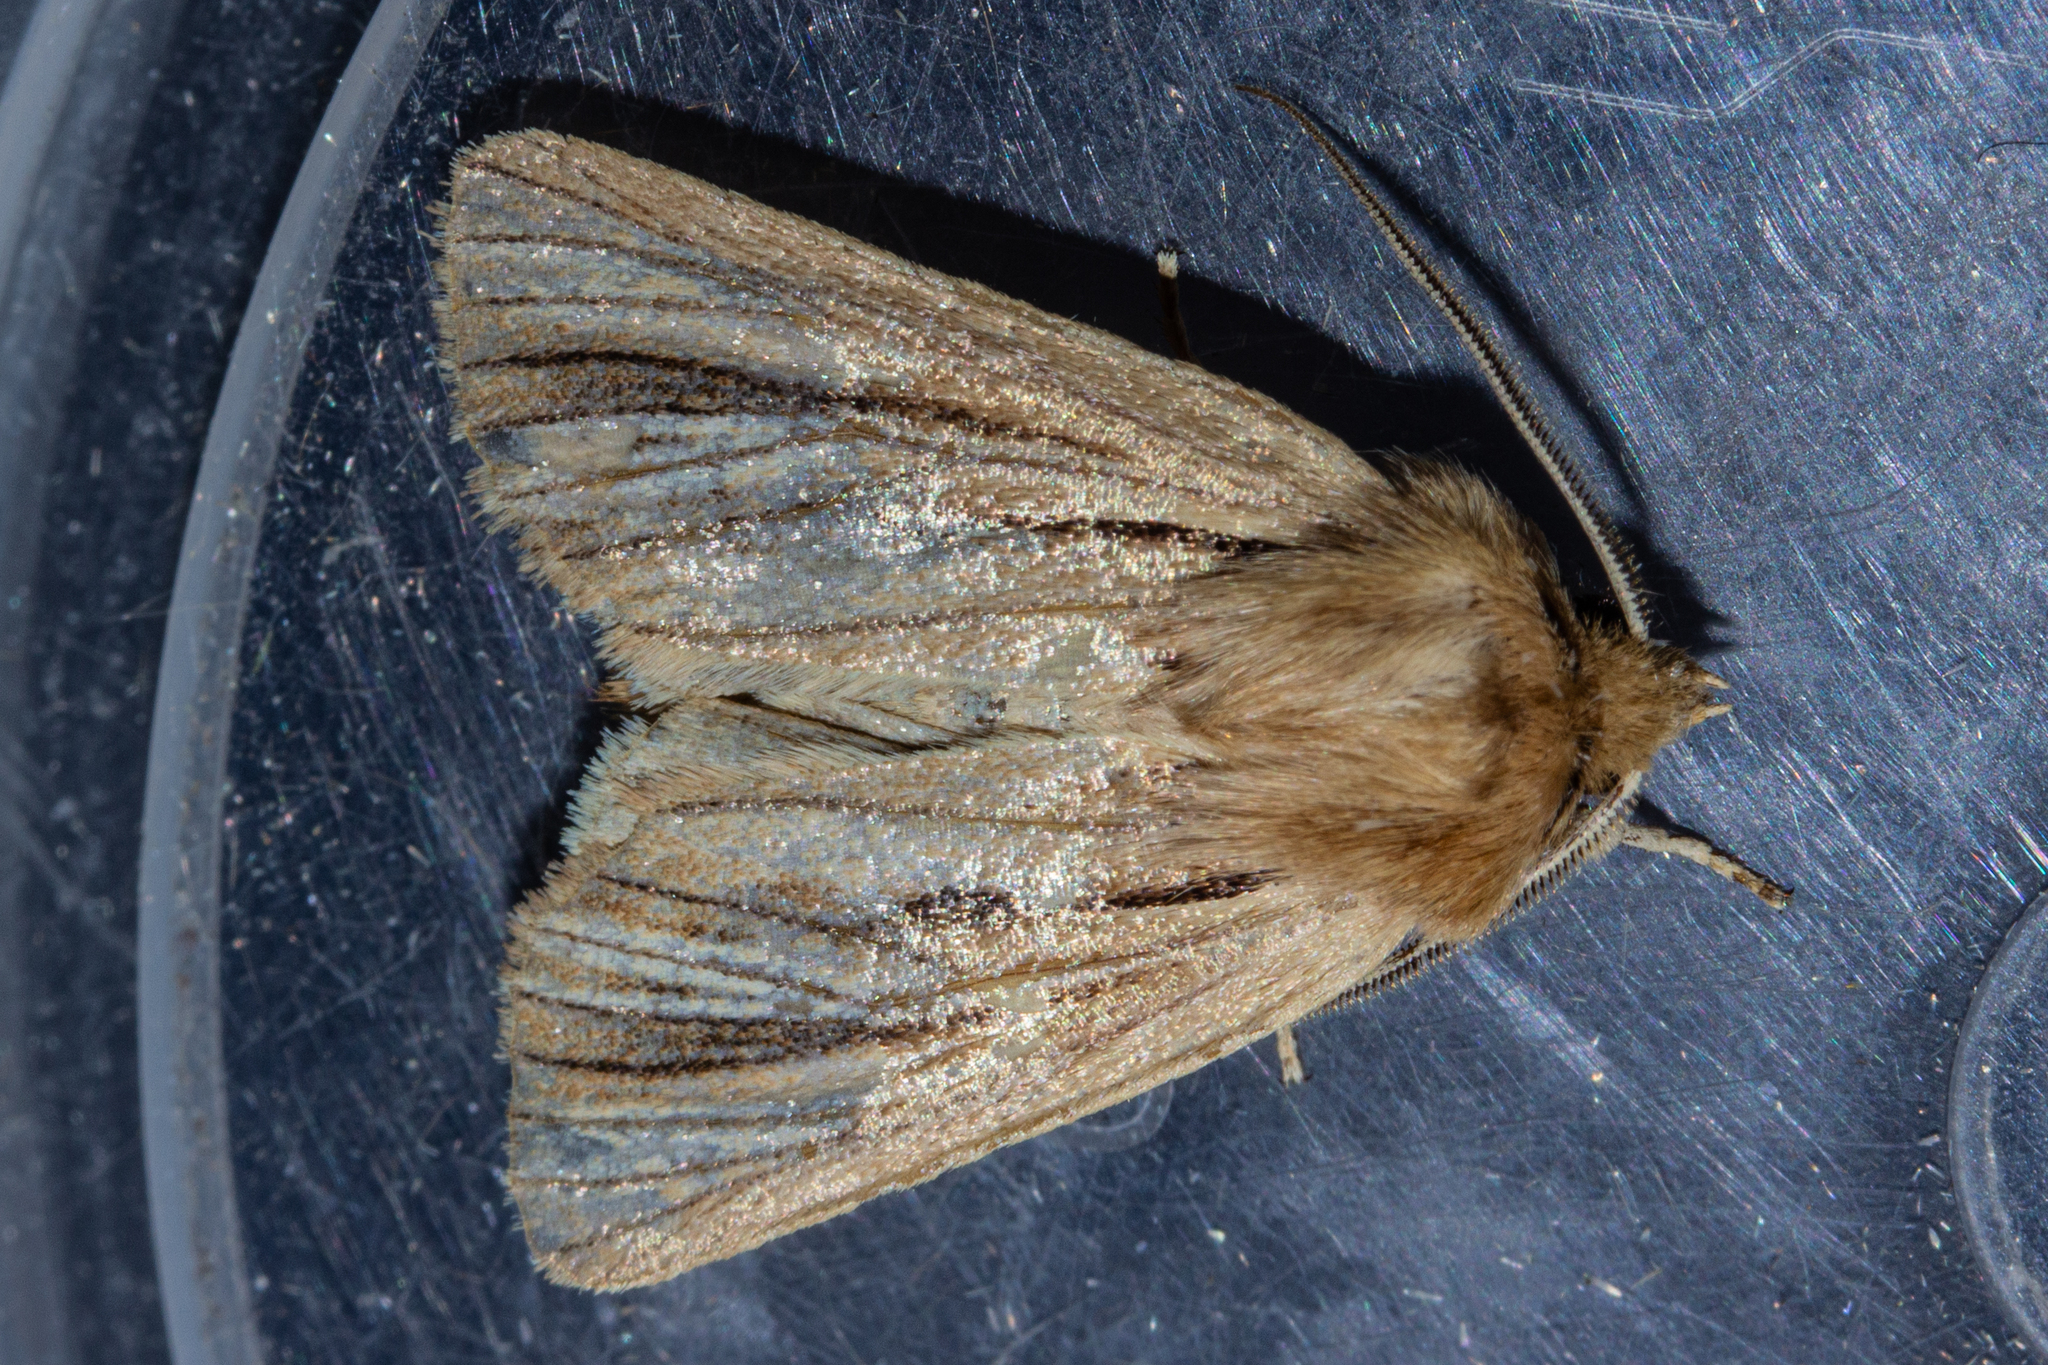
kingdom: Animalia
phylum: Arthropoda
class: Insecta
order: Lepidoptera
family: Noctuidae
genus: Ichneutica
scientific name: Ichneutica
